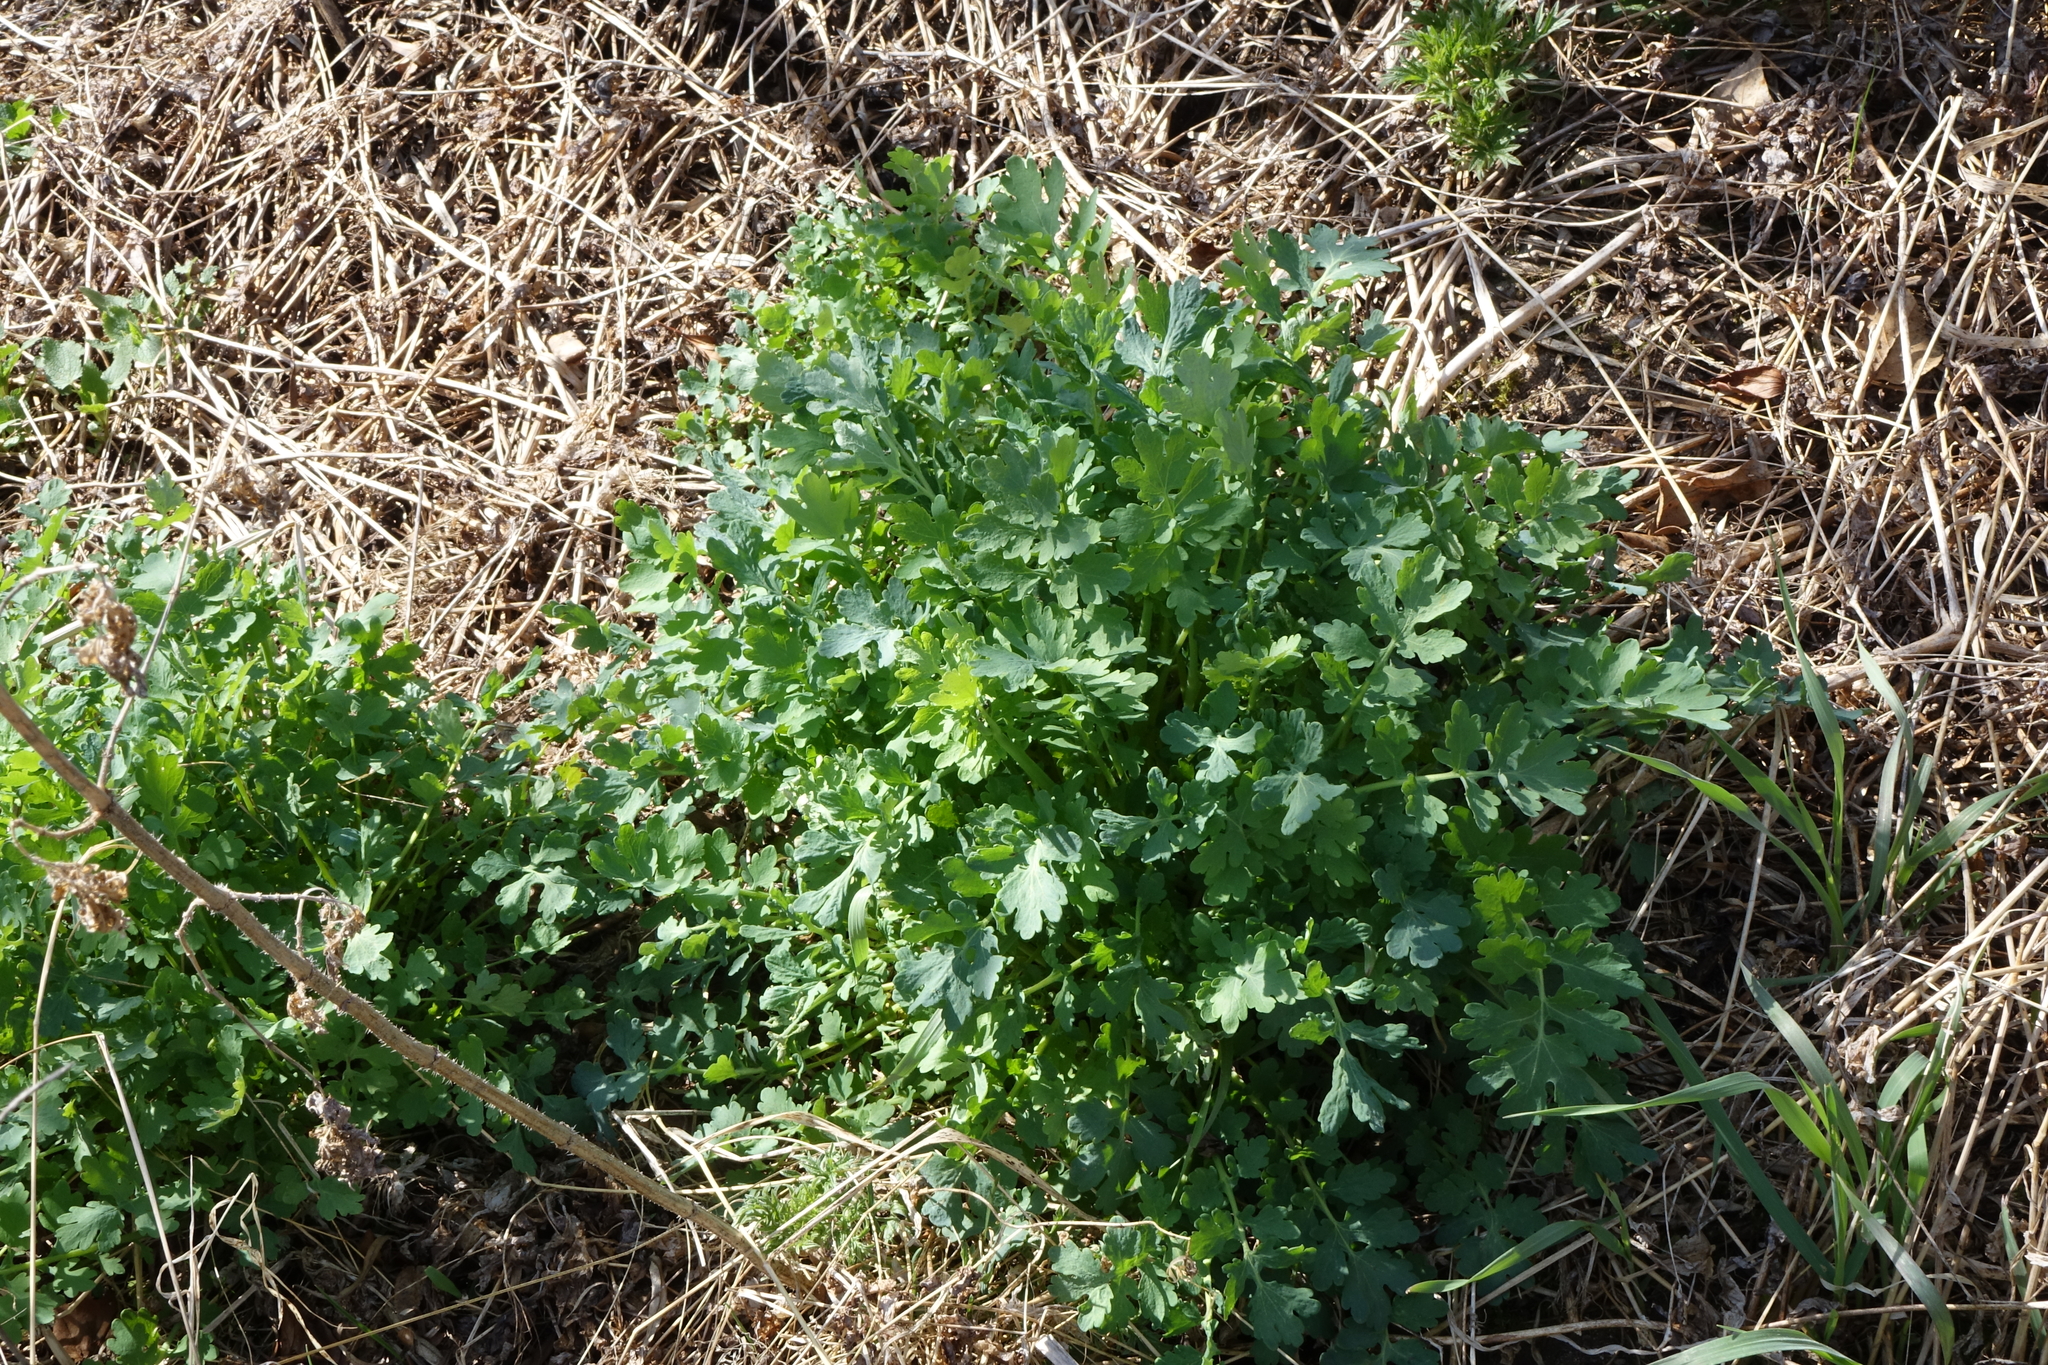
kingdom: Plantae
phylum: Tracheophyta
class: Magnoliopsida
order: Ranunculales
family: Papaveraceae
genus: Chelidonium
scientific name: Chelidonium majus
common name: Greater celandine
